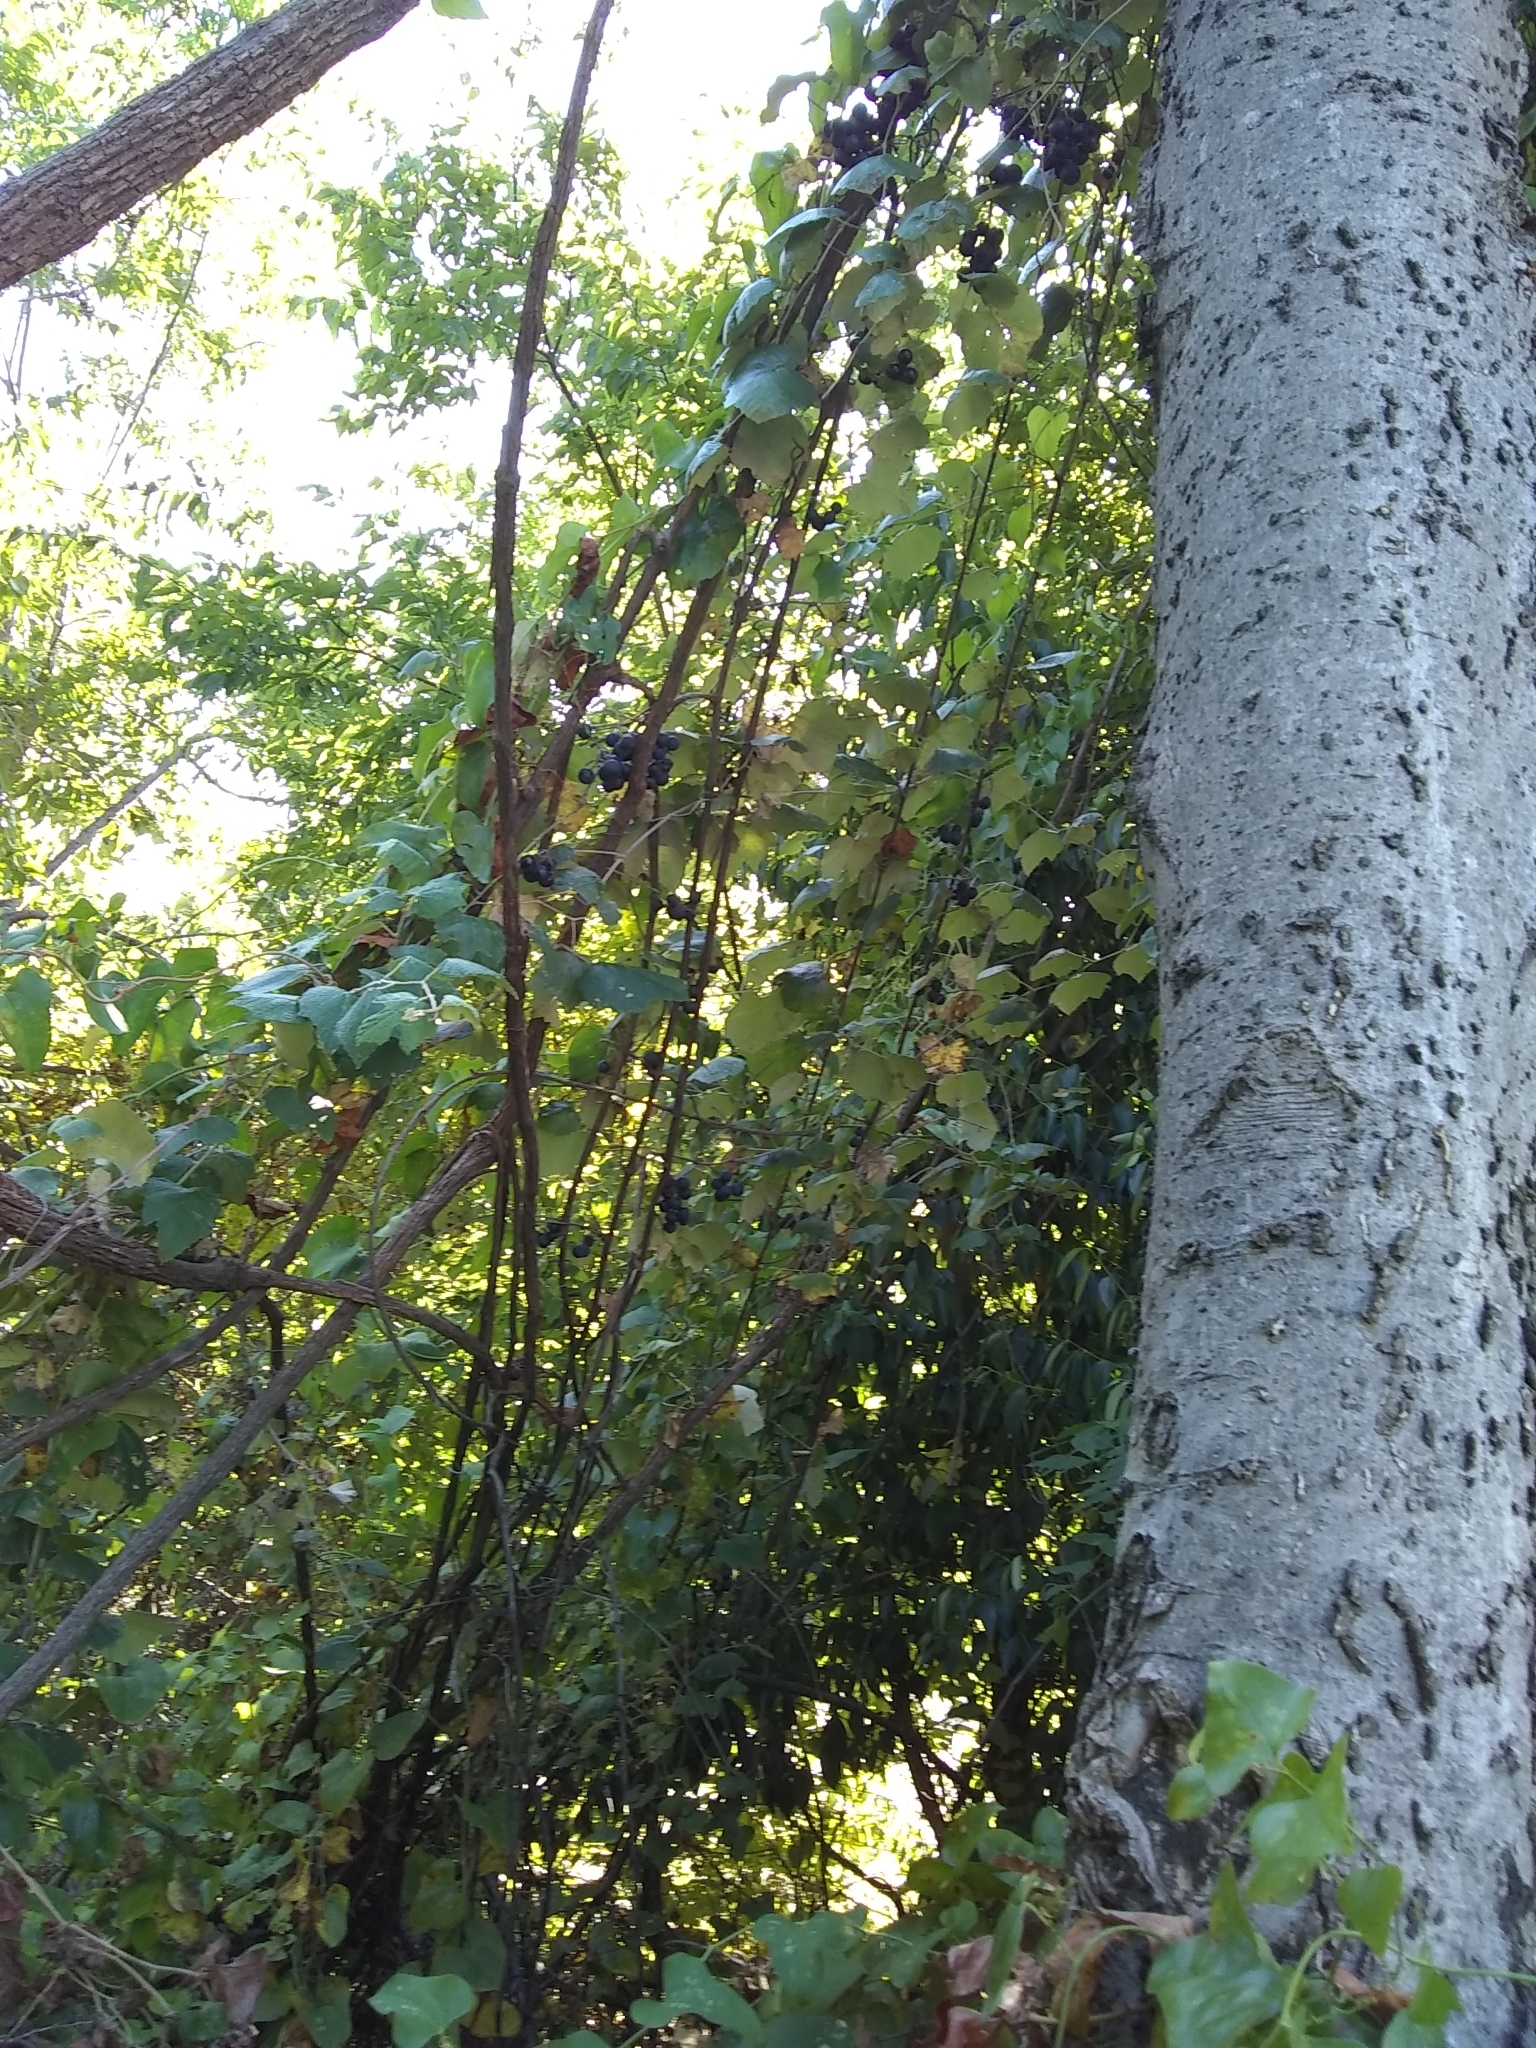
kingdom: Plantae
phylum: Tracheophyta
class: Magnoliopsida
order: Vitales
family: Vitaceae
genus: Vitis
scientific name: Vitis mustangensis
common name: Mustang grape
